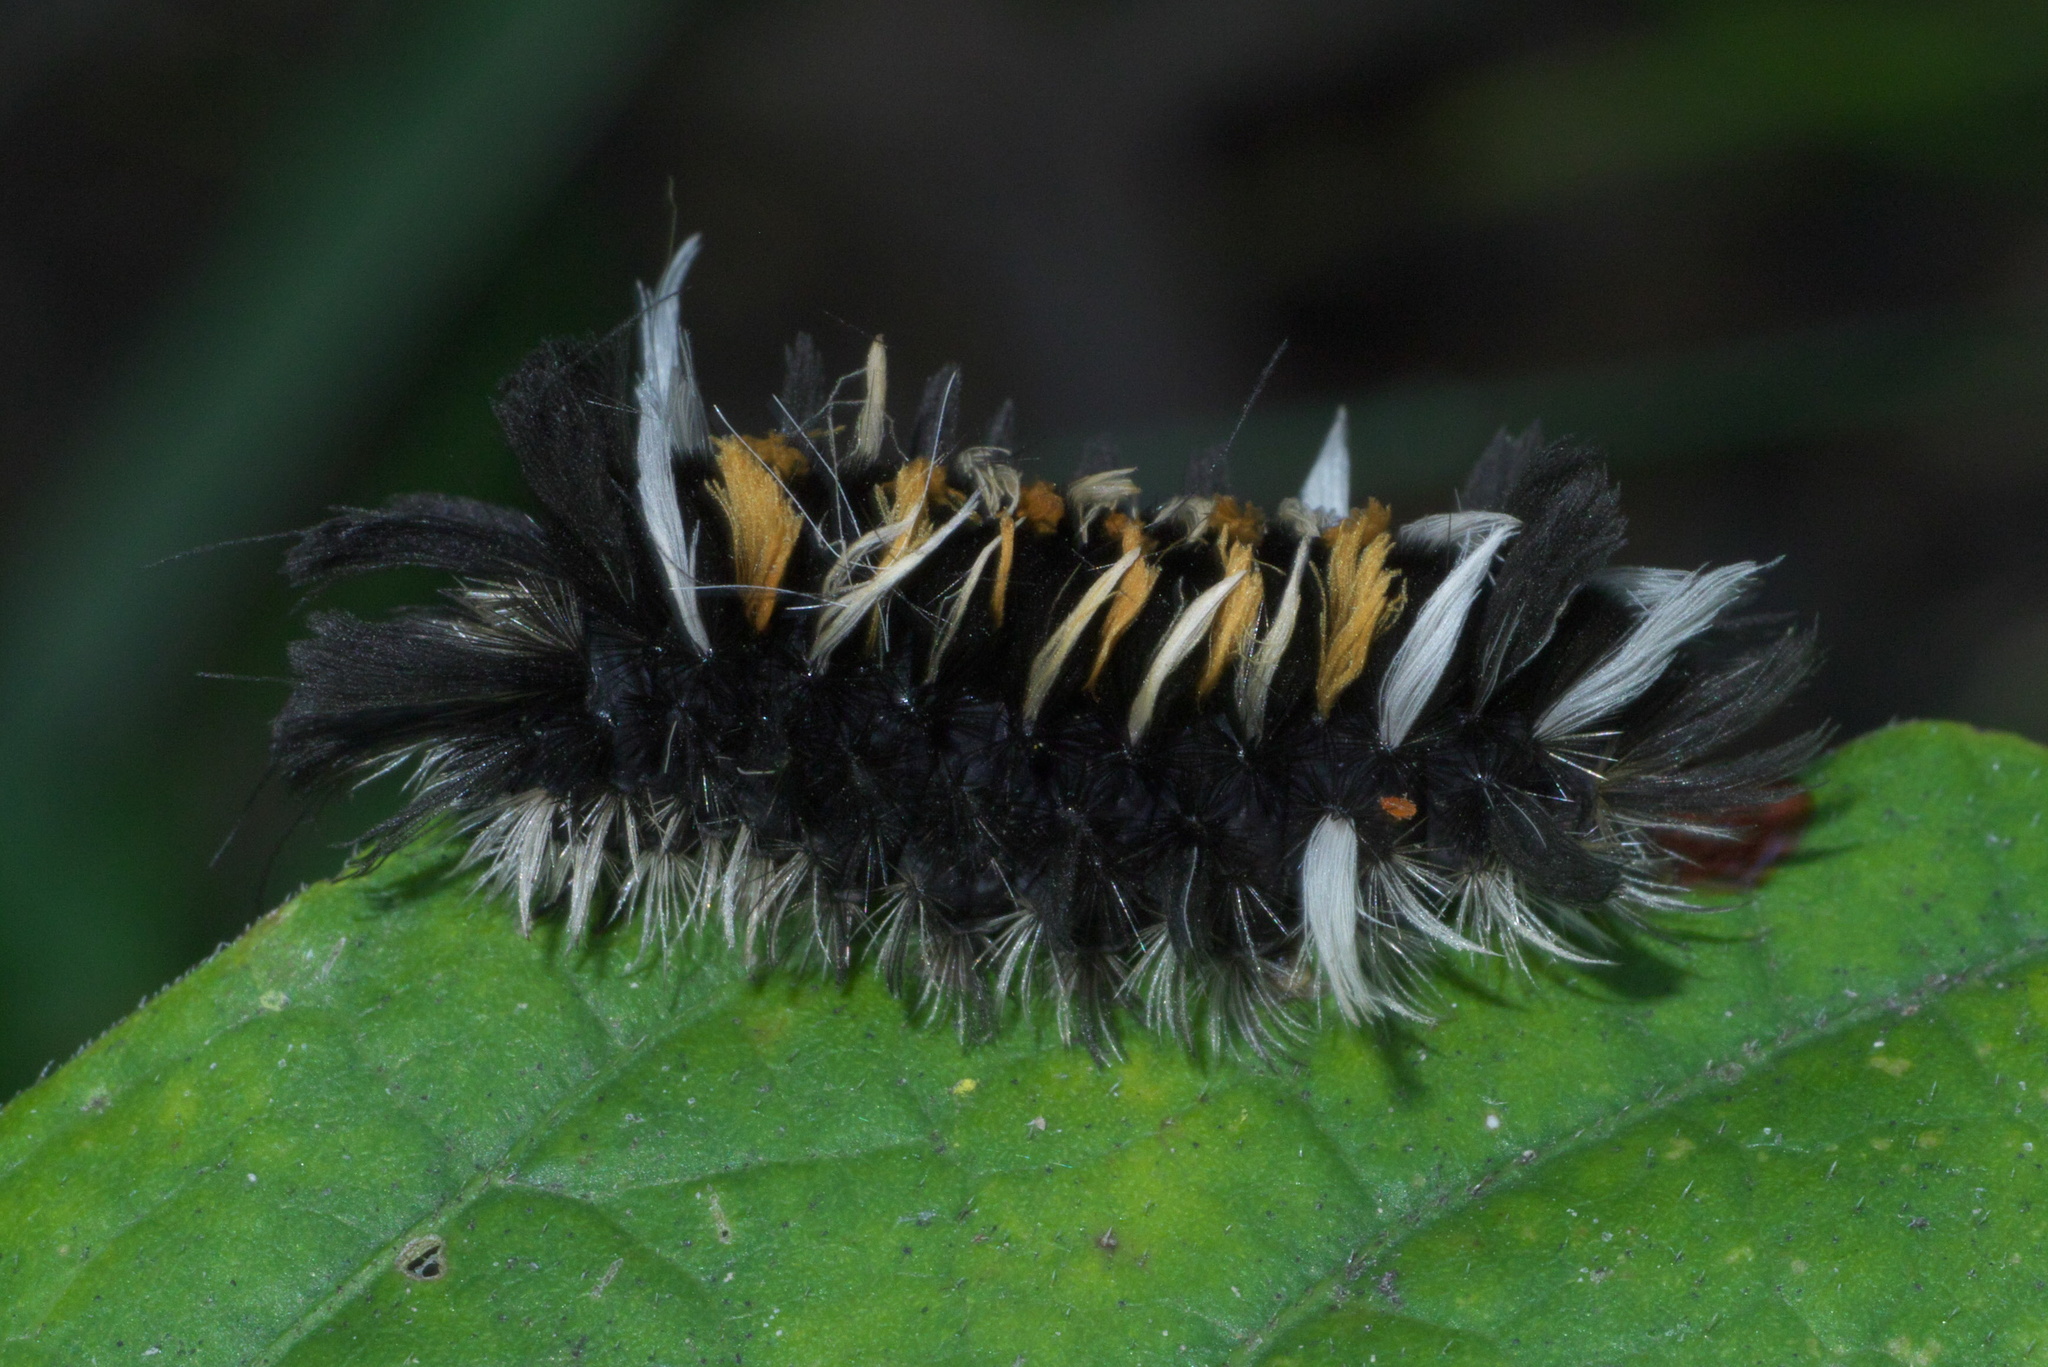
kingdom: Animalia
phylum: Arthropoda
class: Insecta
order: Lepidoptera
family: Erebidae
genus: Euchaetes
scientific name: Euchaetes egle
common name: Milkweed tussock moth
